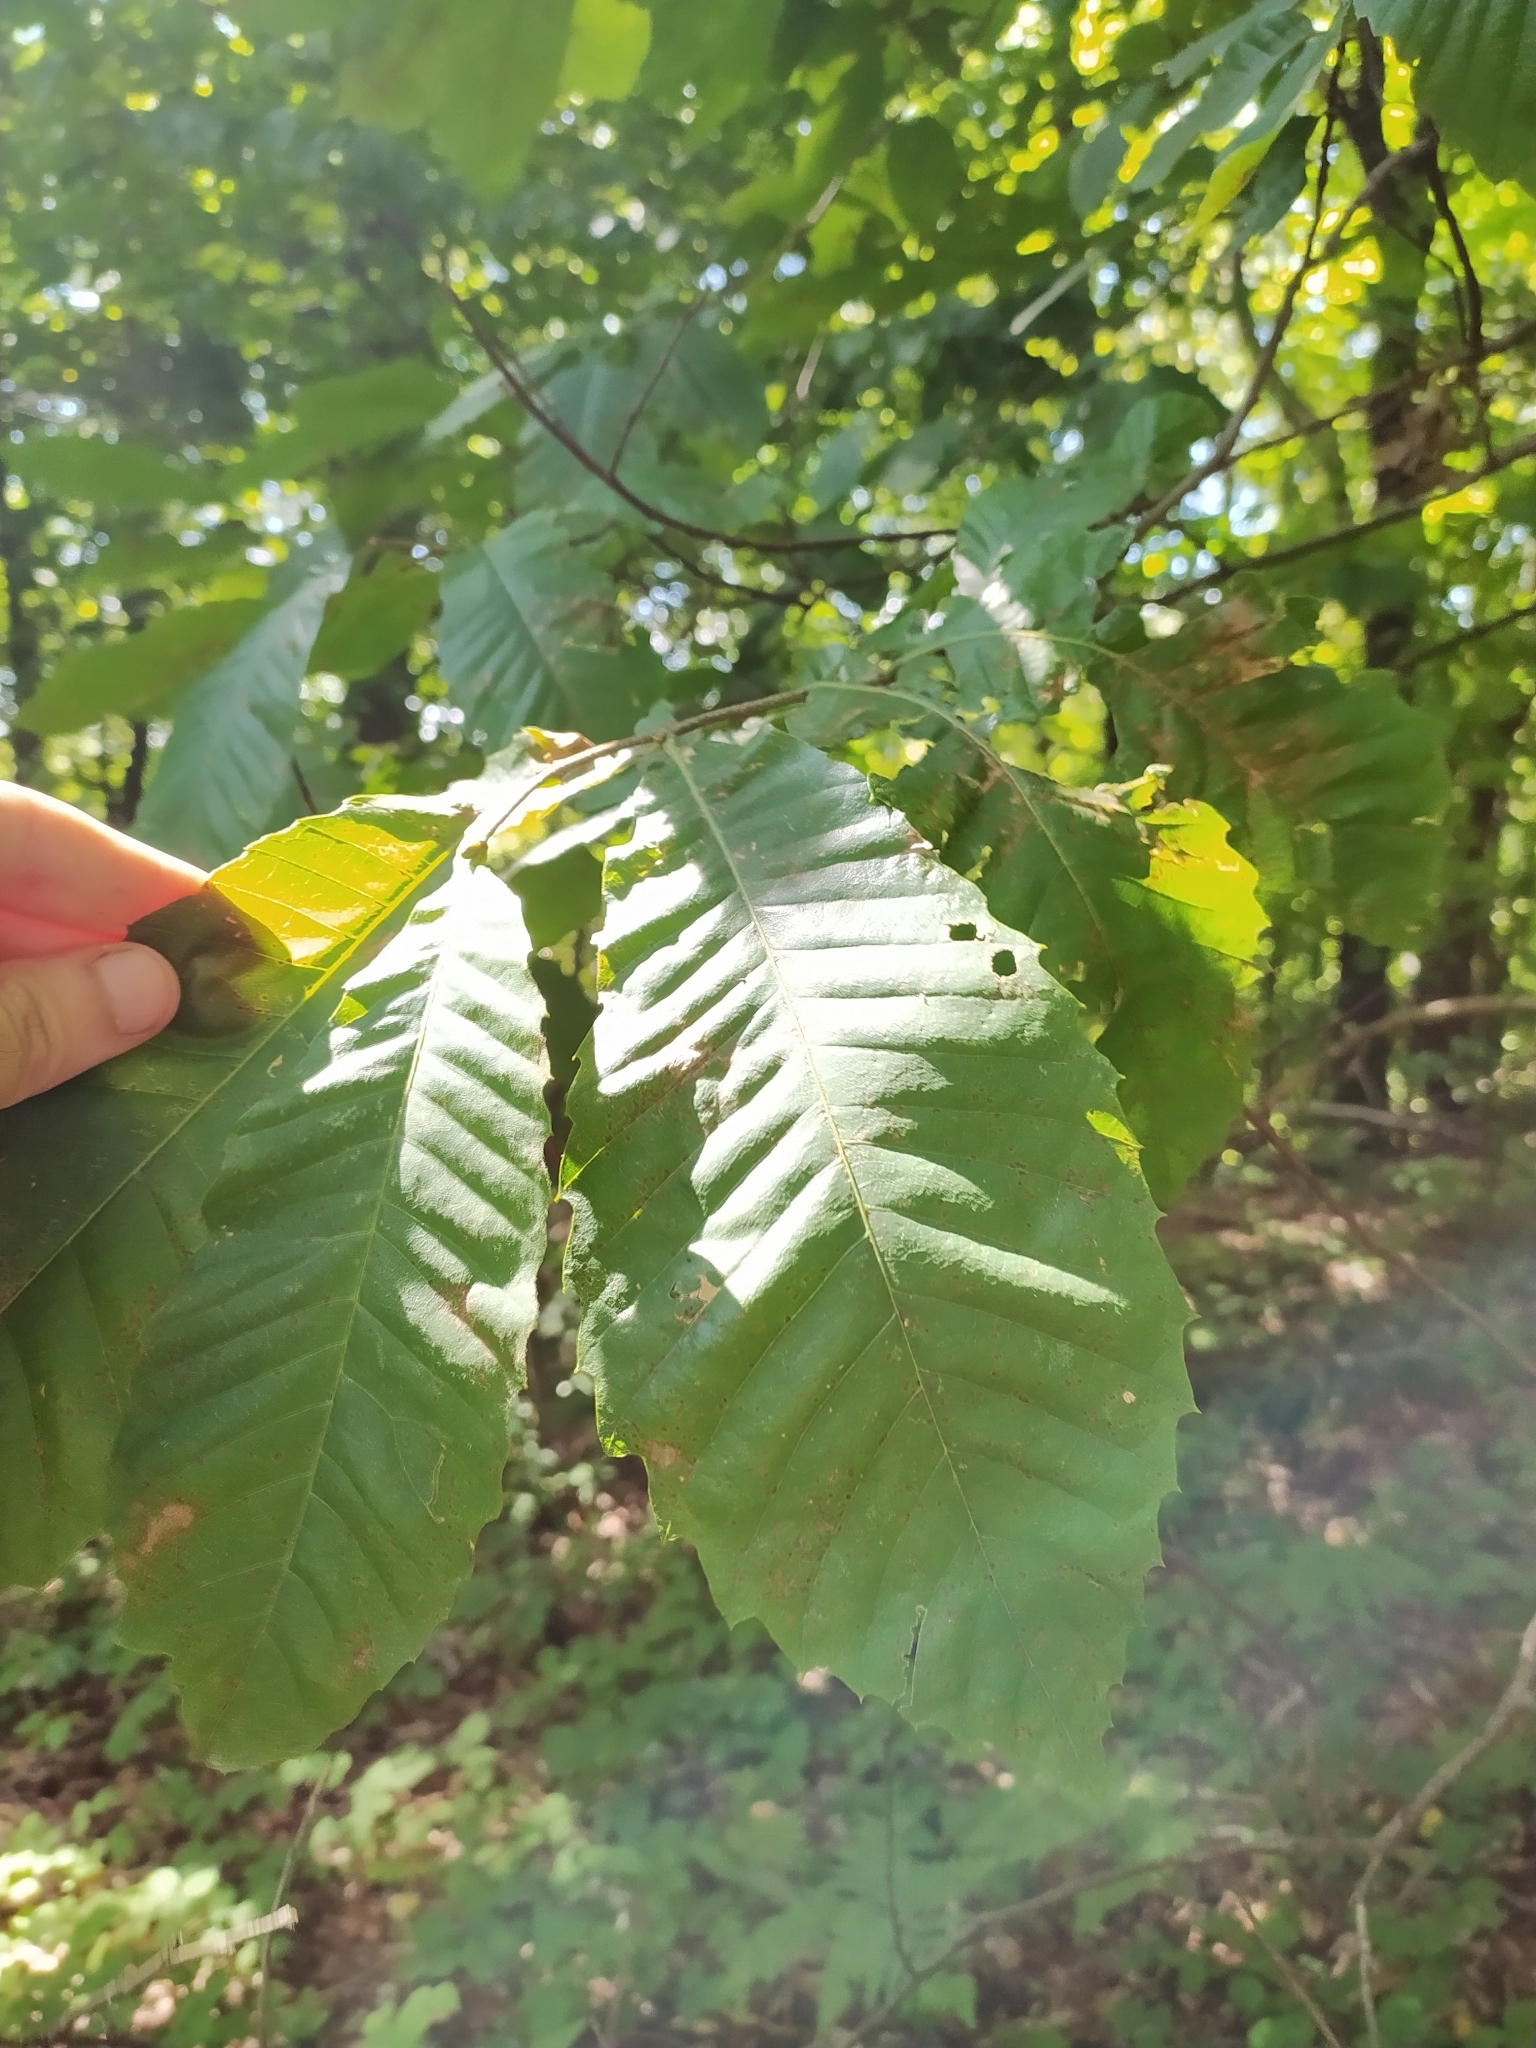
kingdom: Plantae
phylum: Tracheophyta
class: Magnoliopsida
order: Fagales
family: Fagaceae
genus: Castanea
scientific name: Castanea sativa
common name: Sweet chestnut
